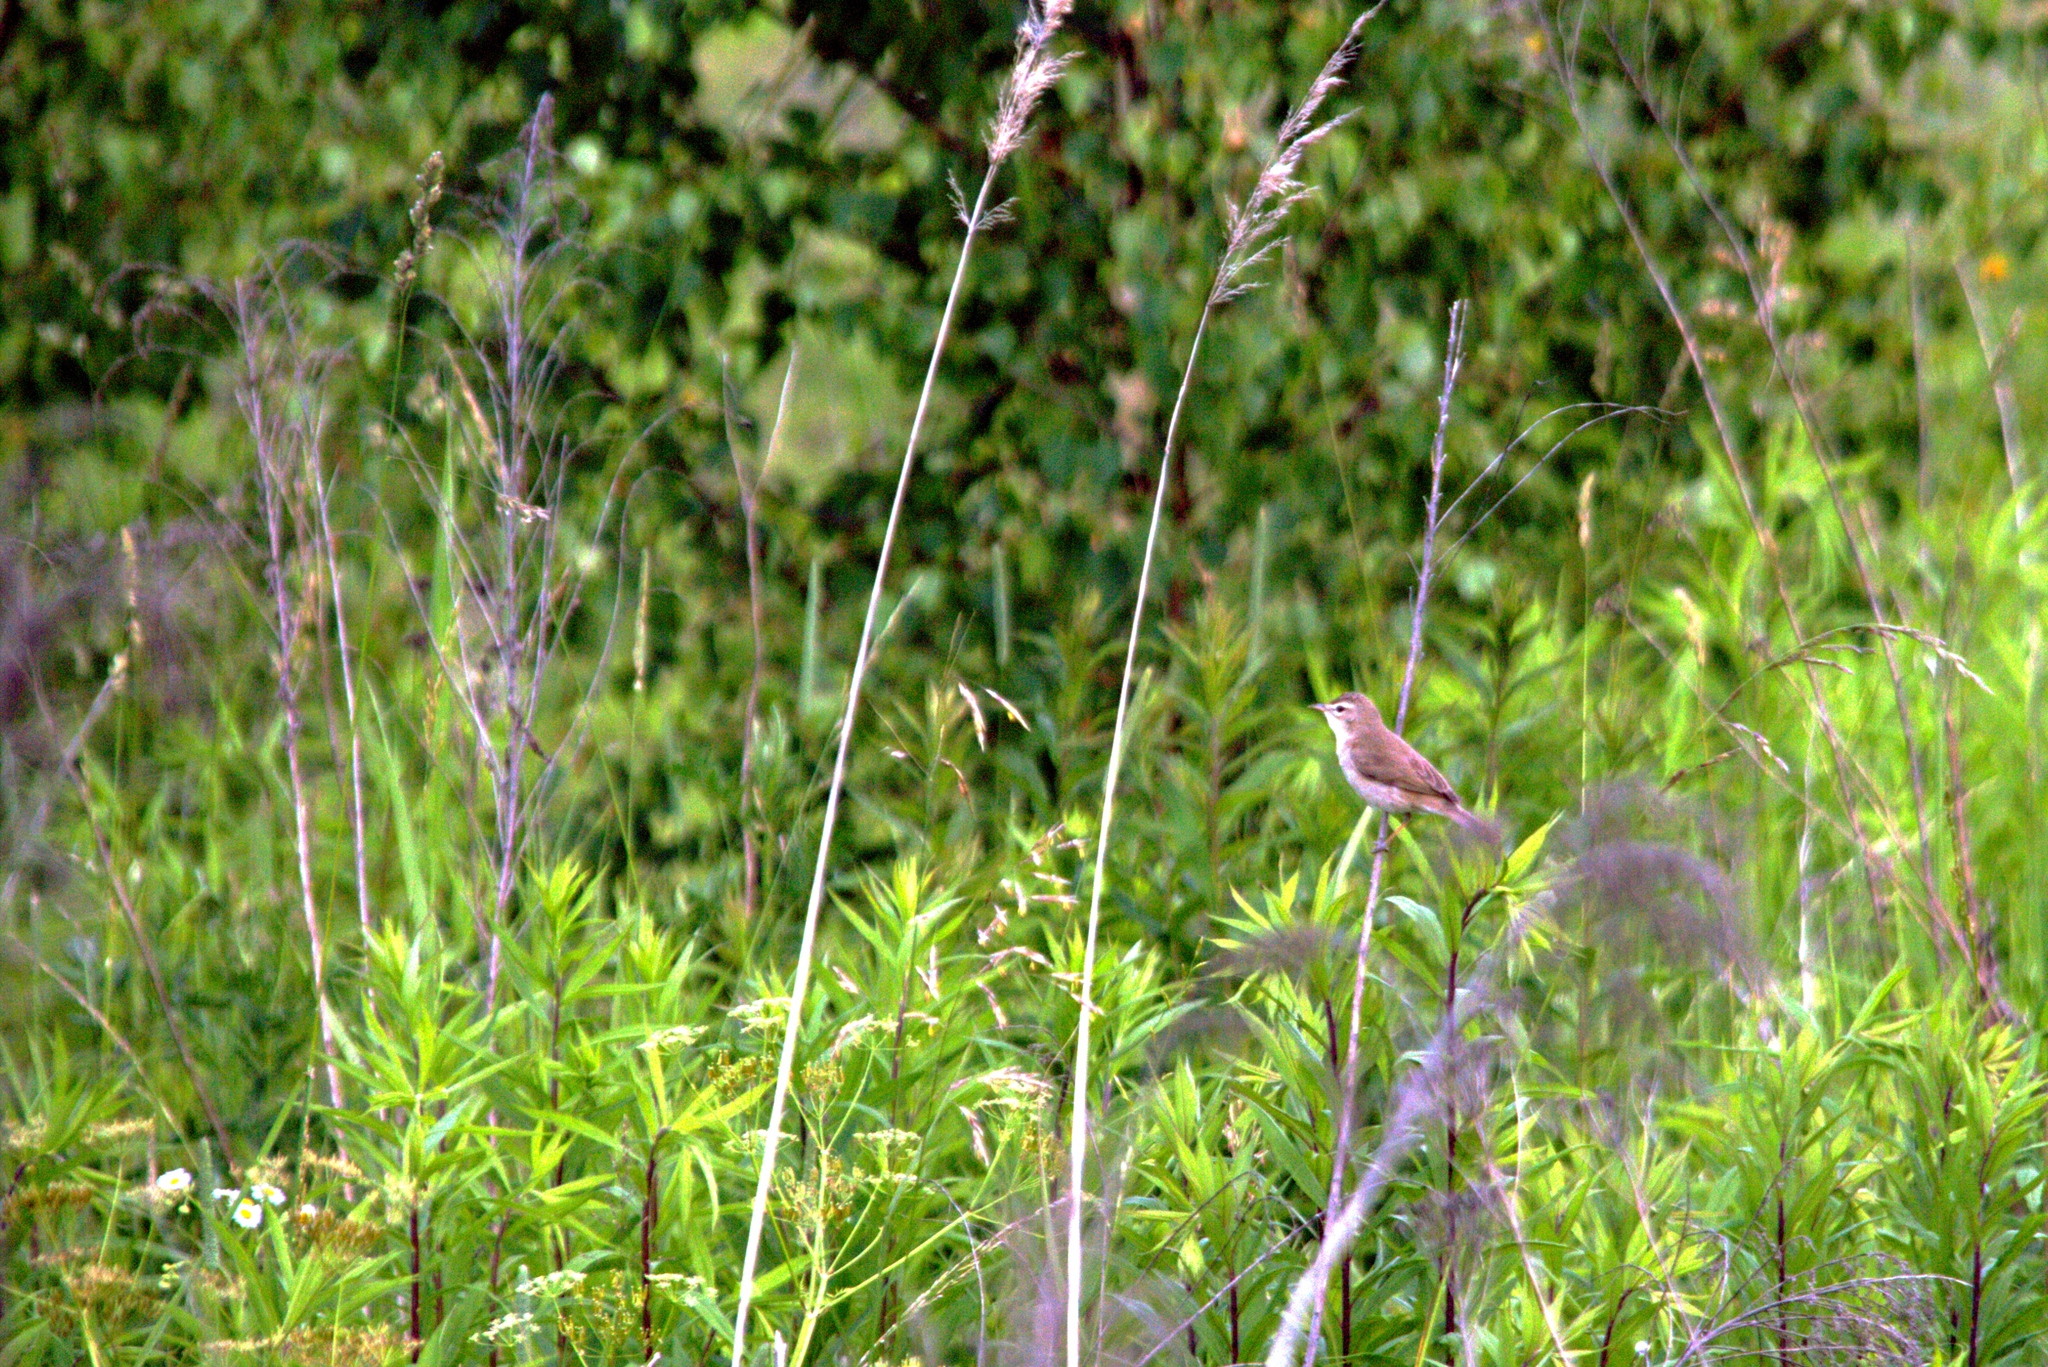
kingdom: Animalia
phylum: Chordata
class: Aves
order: Passeriformes
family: Acrocephalidae
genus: Iduna
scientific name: Iduna caligata
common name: Booted warbler
